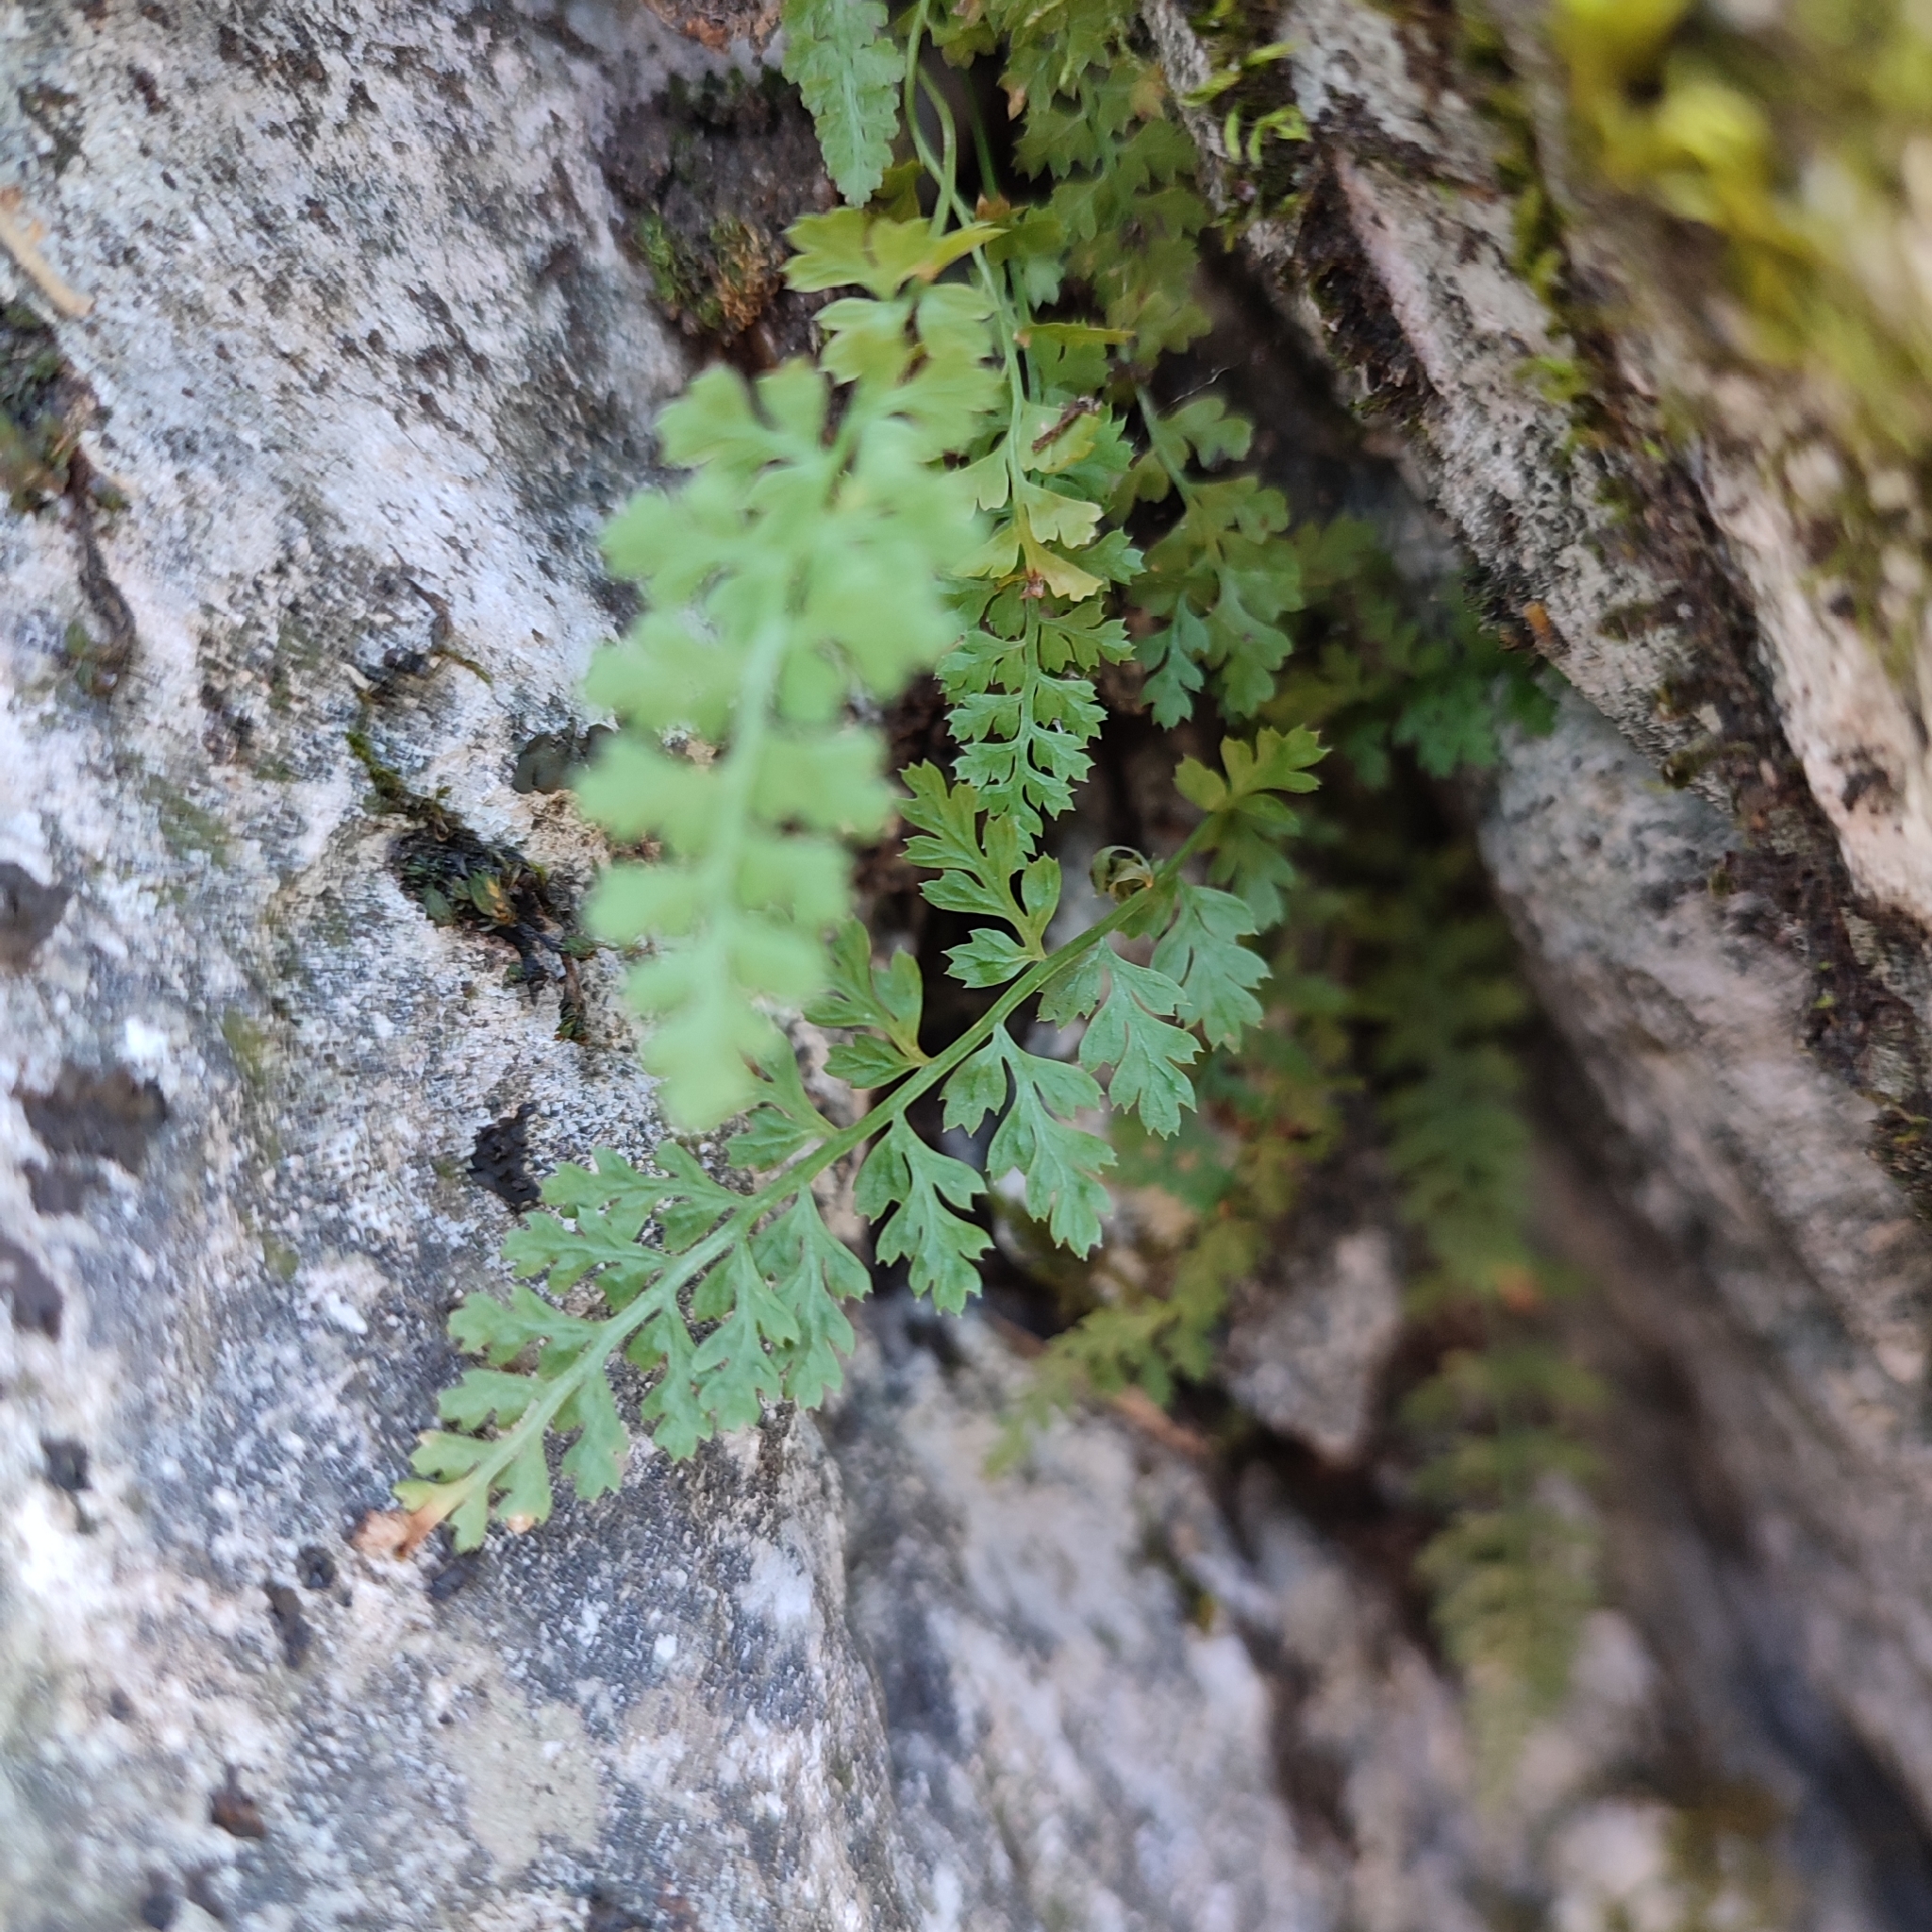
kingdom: Plantae
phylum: Tracheophyta
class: Polypodiopsida
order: Polypodiales
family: Aspleniaceae
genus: Asplenium
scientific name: Asplenium fontanum
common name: Fountain spleenwort
